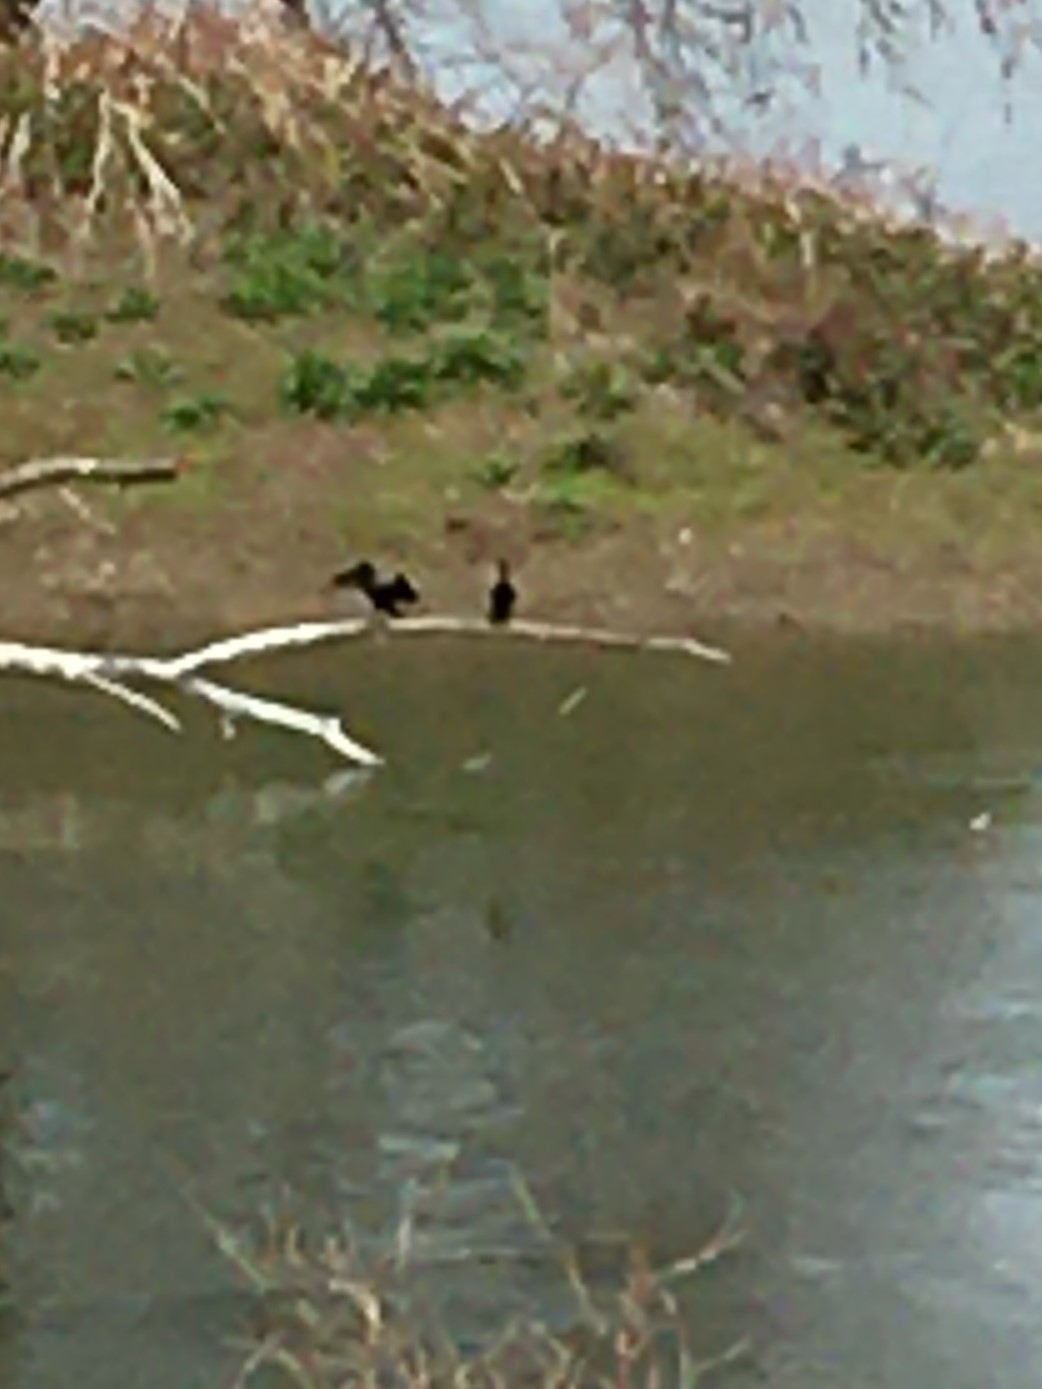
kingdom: Animalia
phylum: Chordata
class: Aves
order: Suliformes
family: Phalacrocoracidae
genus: Phalacrocorax
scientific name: Phalacrocorax auritus
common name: Double-crested cormorant
